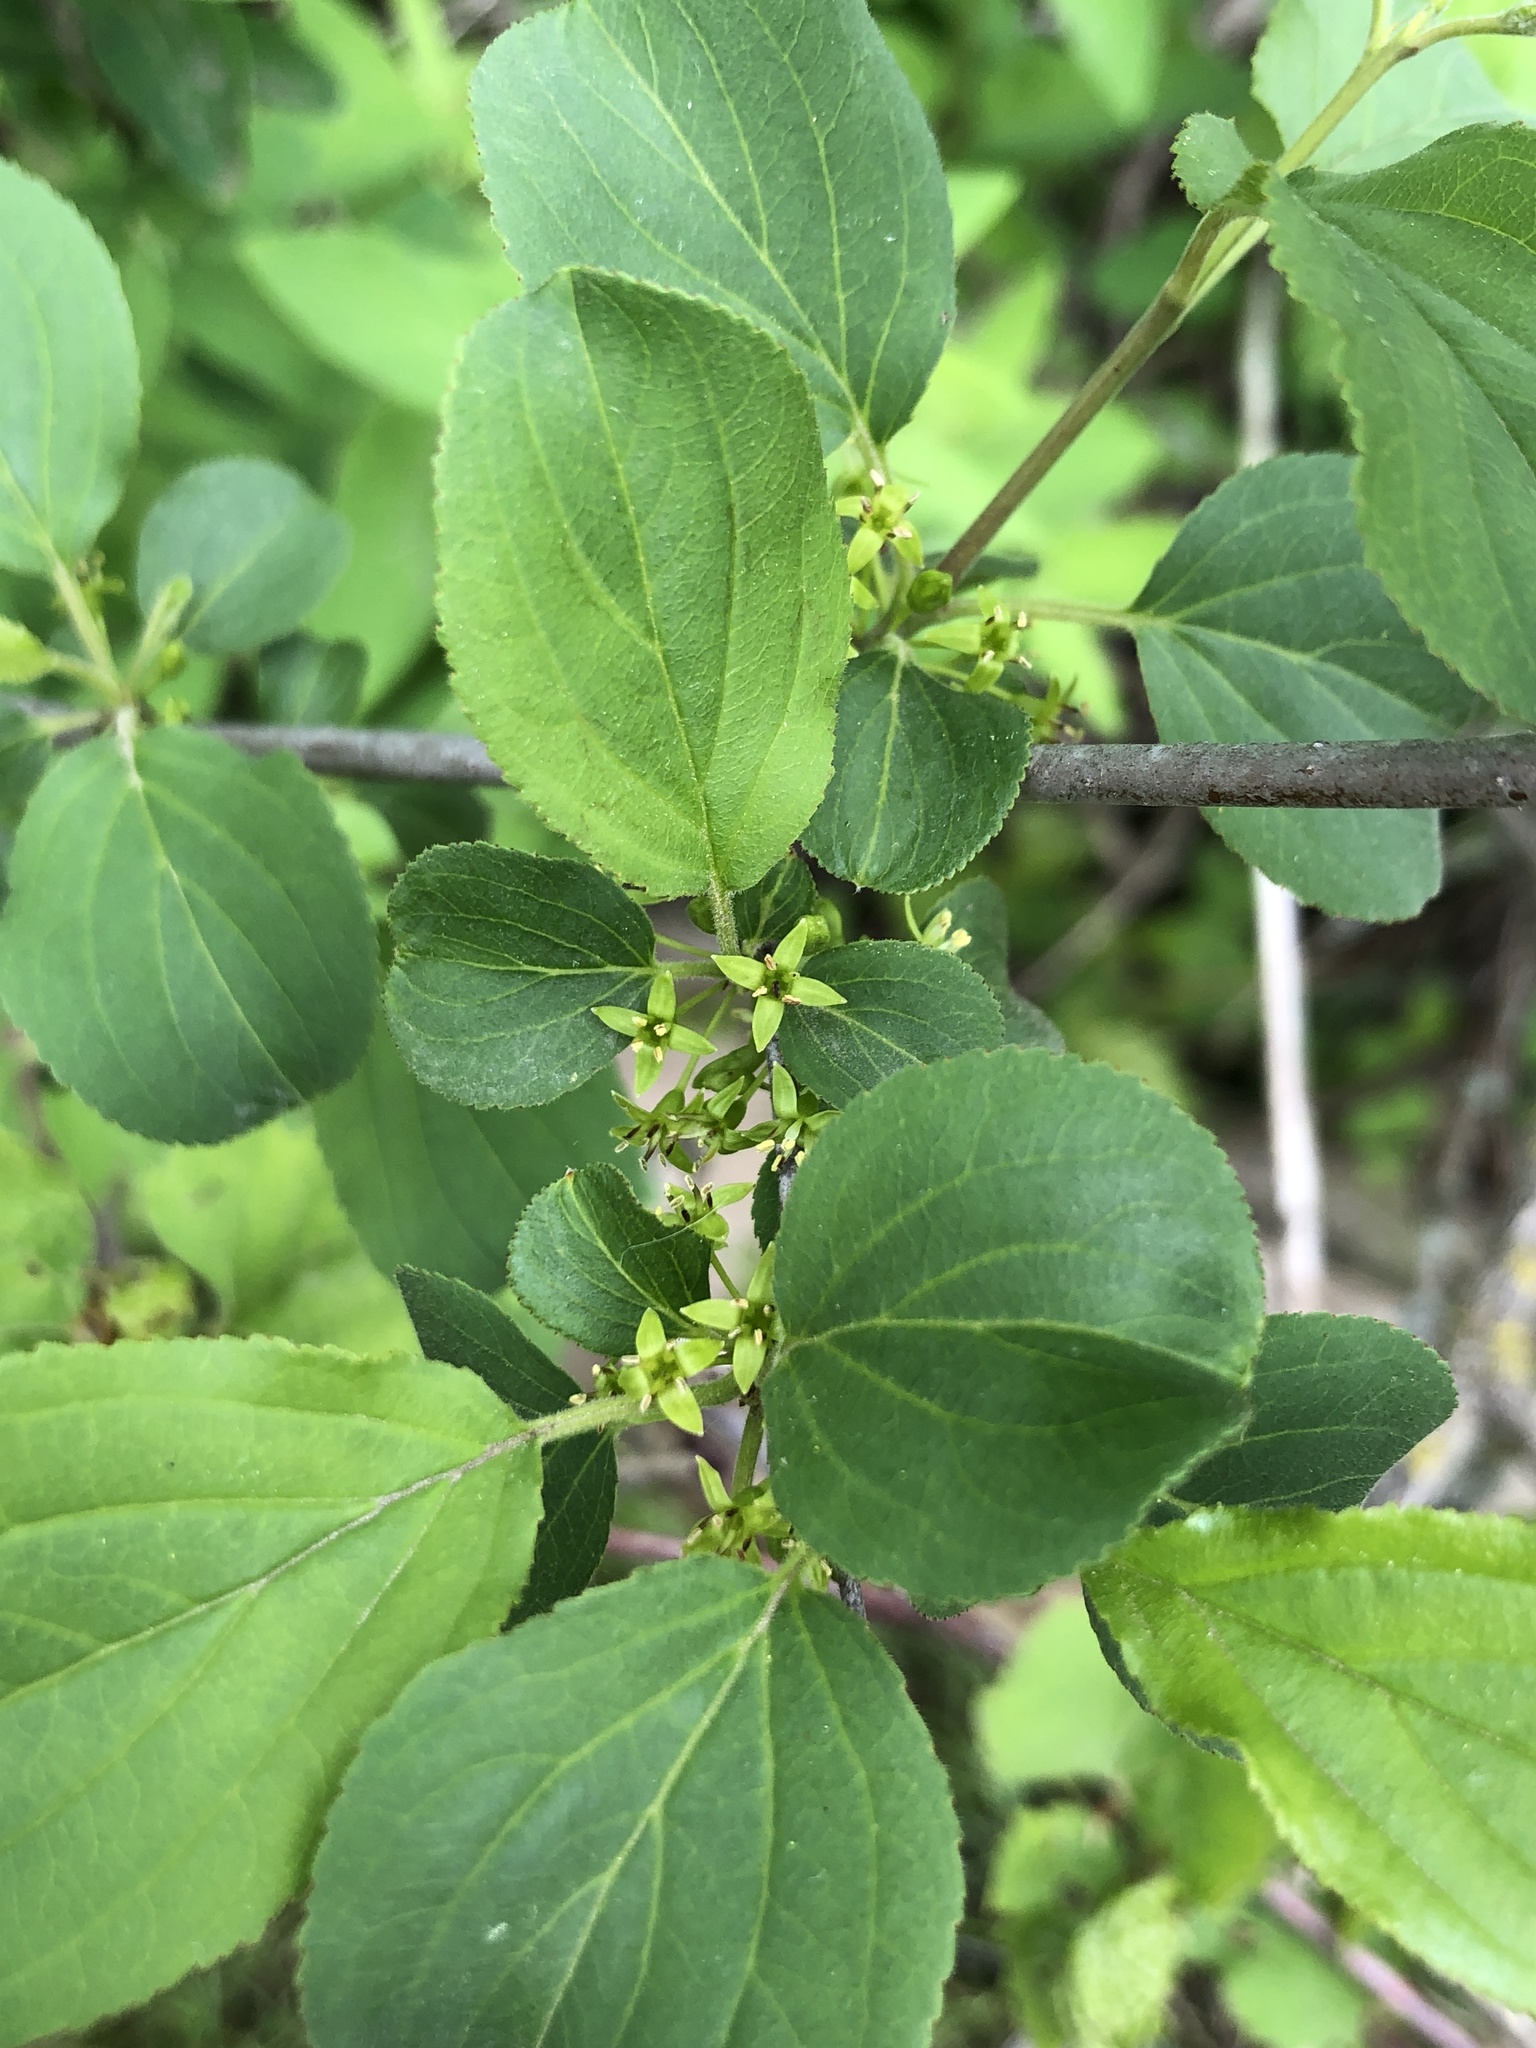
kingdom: Plantae
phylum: Tracheophyta
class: Magnoliopsida
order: Rosales
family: Rhamnaceae
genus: Rhamnus
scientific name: Rhamnus cathartica
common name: Common buckthorn
